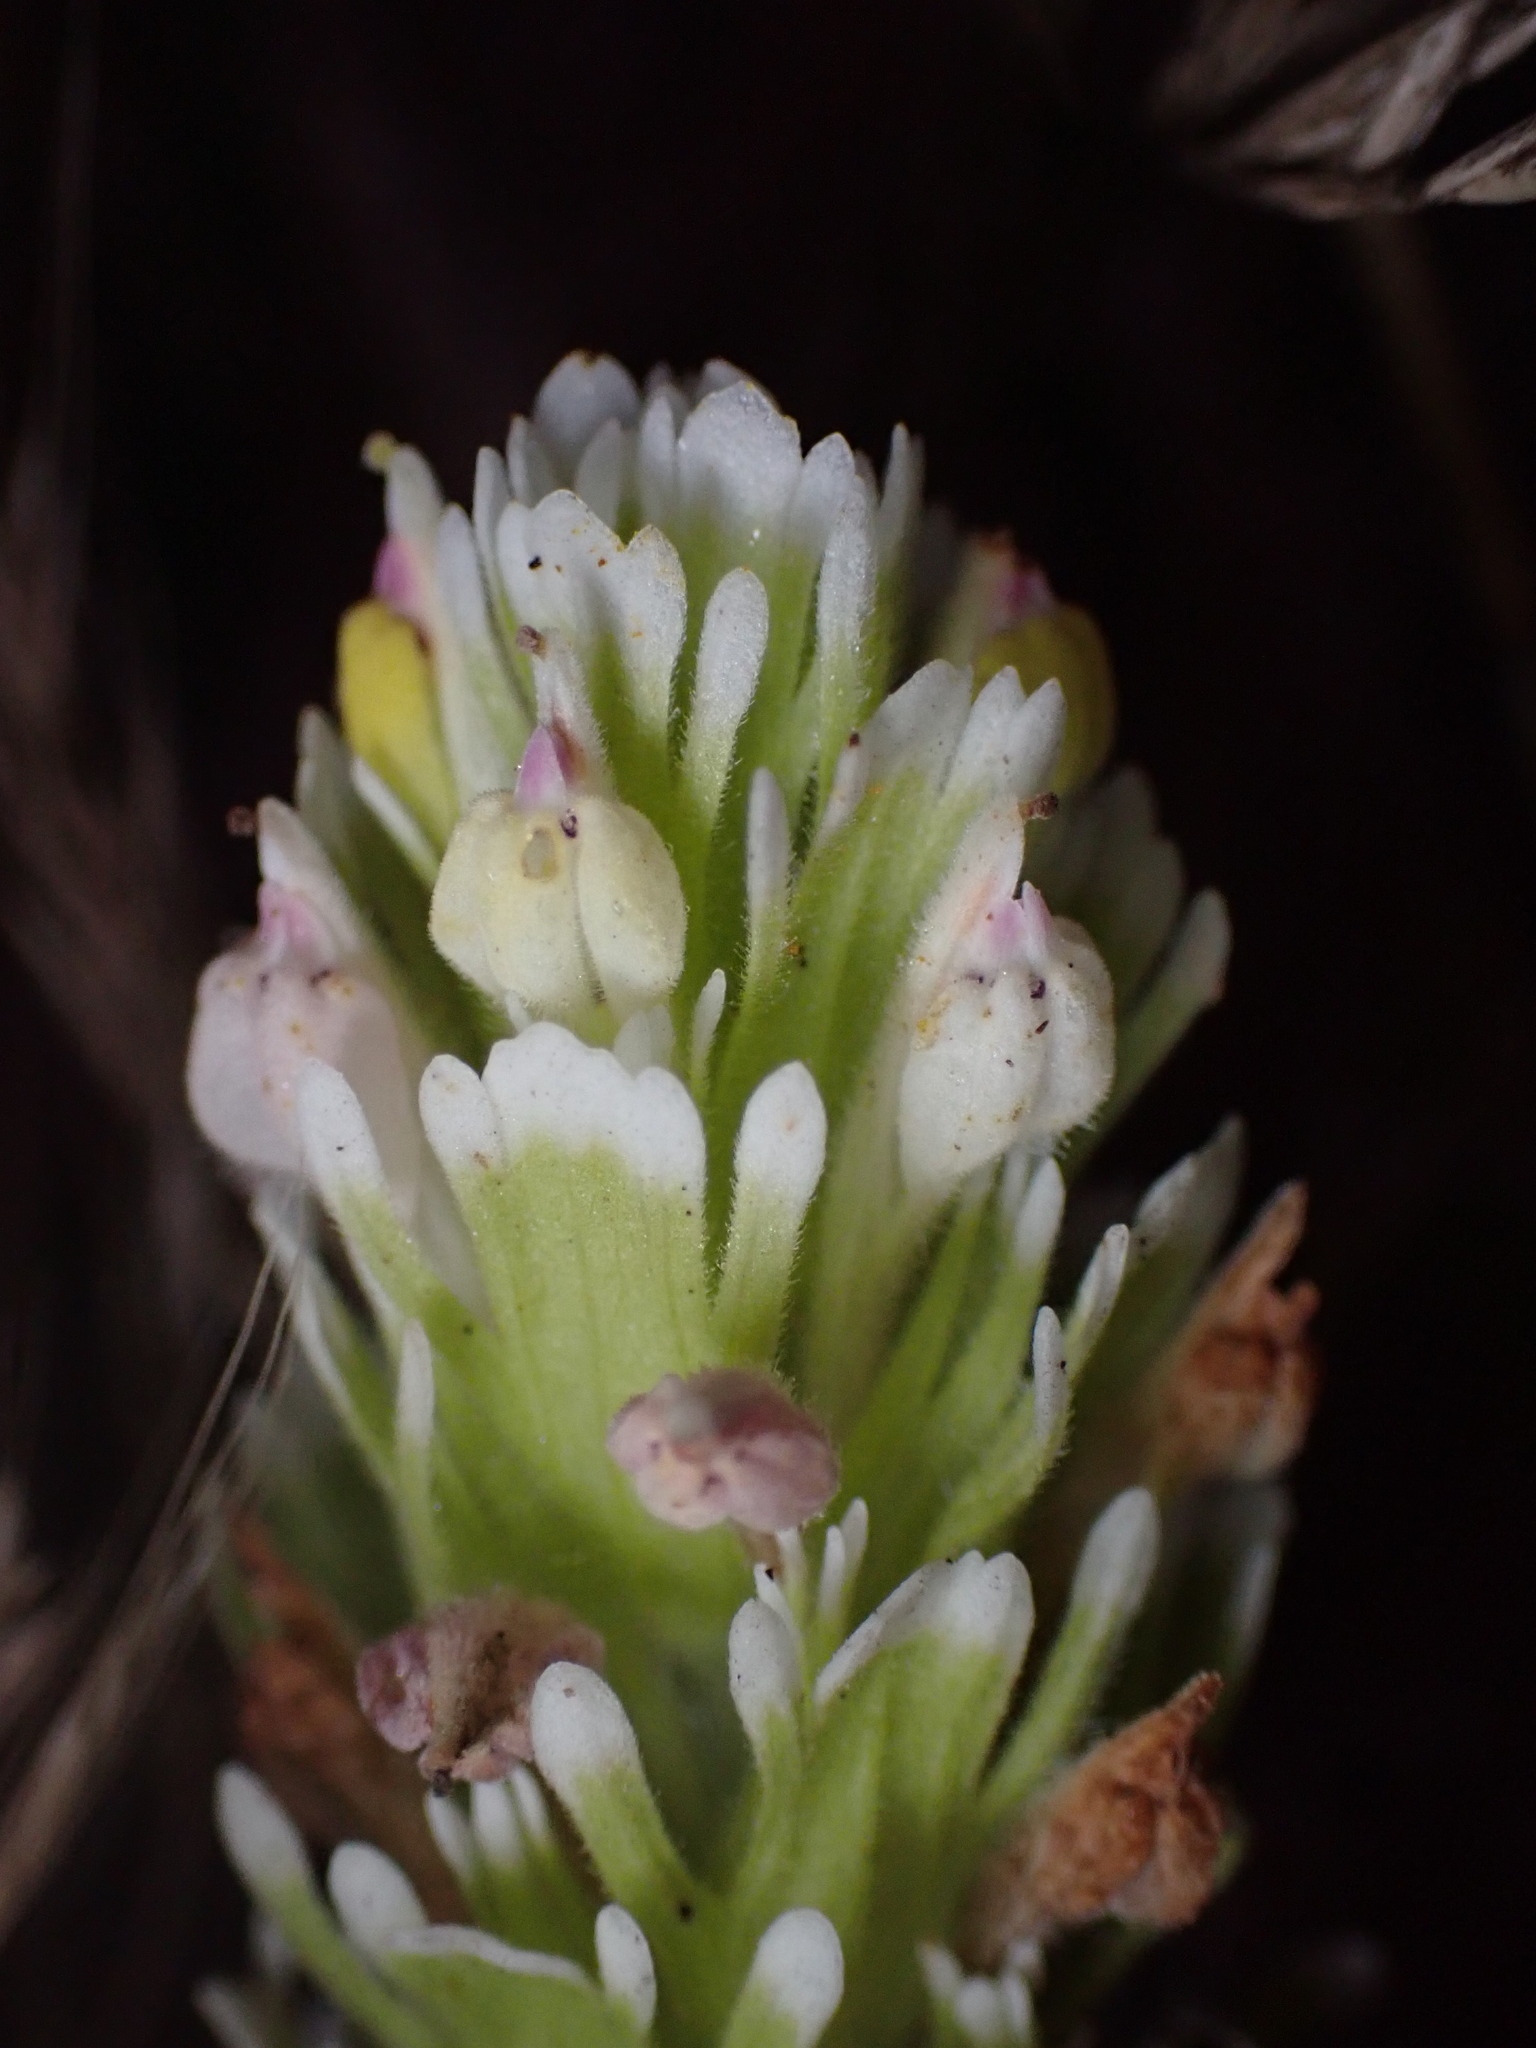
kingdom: Plantae
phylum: Tracheophyta
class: Magnoliopsida
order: Lamiales
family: Orobanchaceae
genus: Castilleja
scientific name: Castilleja ambigua
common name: Johnny-nip
